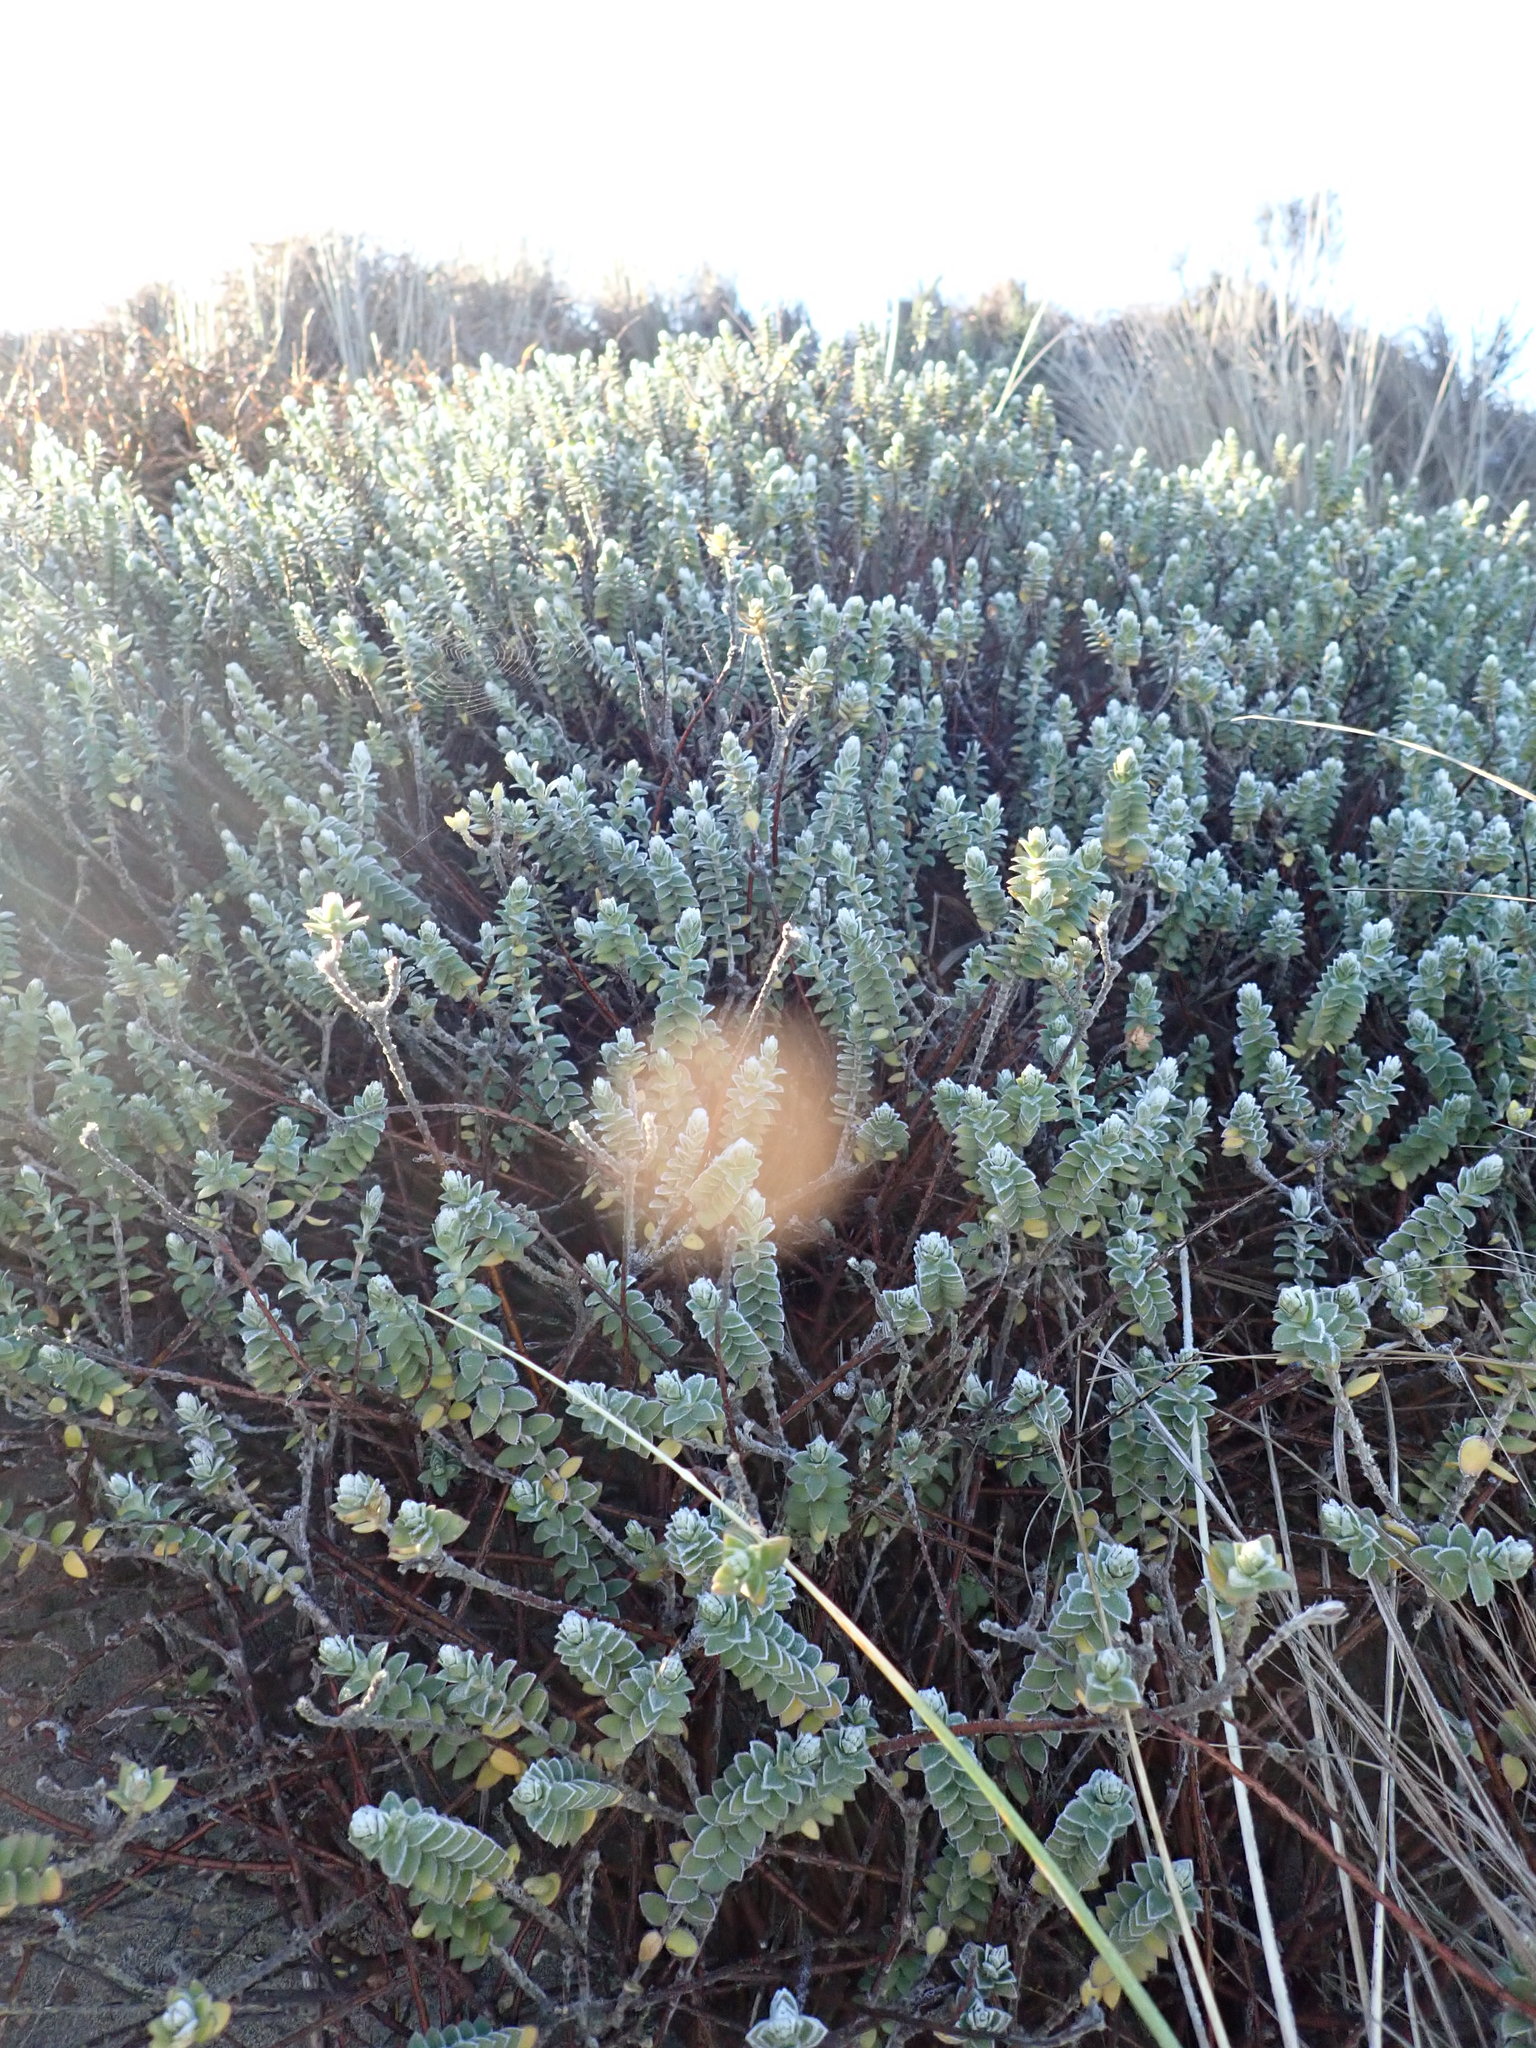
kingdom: Plantae
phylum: Tracheophyta
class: Magnoliopsida
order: Malvales
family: Thymelaeaceae
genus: Pimelea
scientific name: Pimelea villosa
